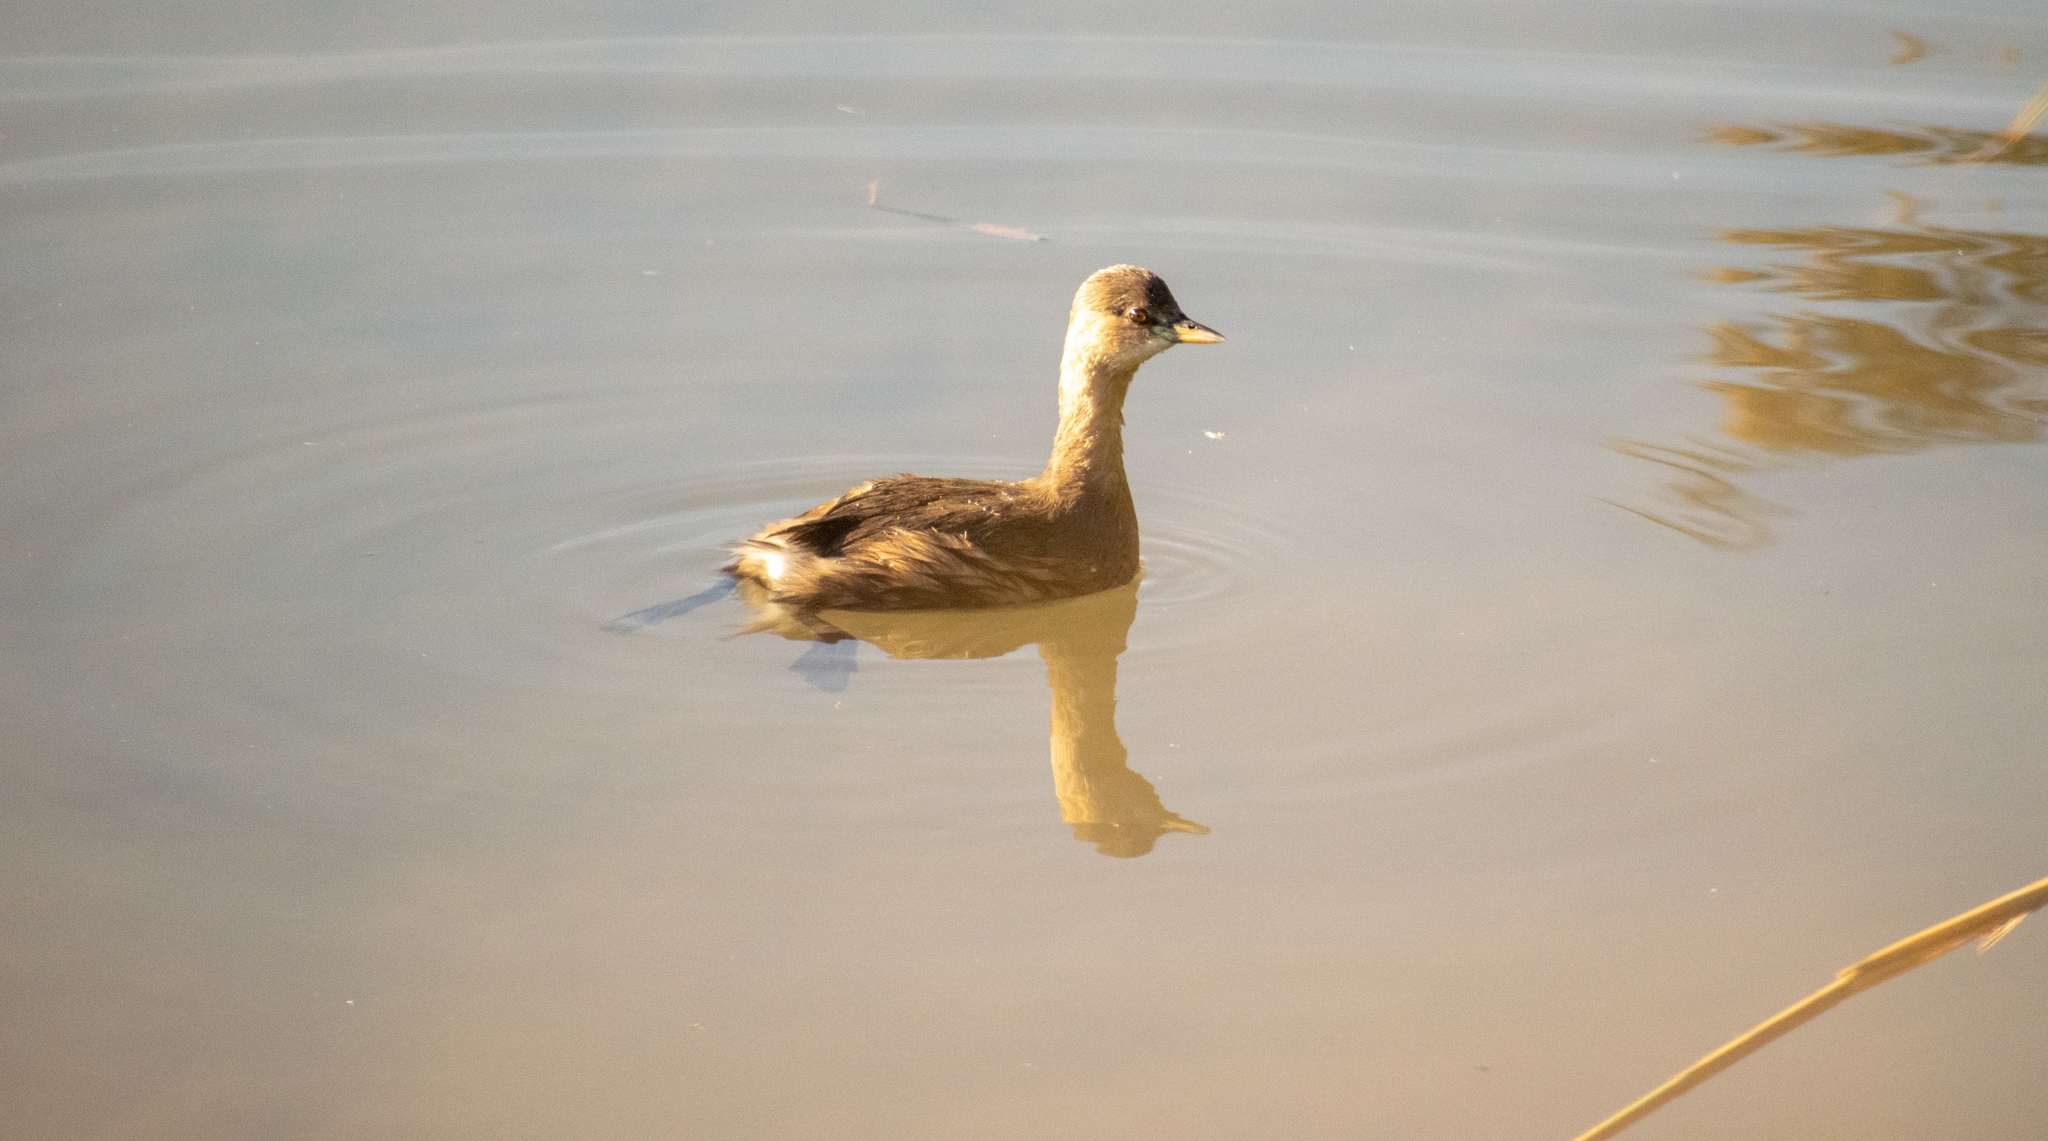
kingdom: Animalia
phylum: Chordata
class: Aves
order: Podicipediformes
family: Podicipedidae
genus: Tachybaptus
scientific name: Tachybaptus ruficollis
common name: Little grebe
